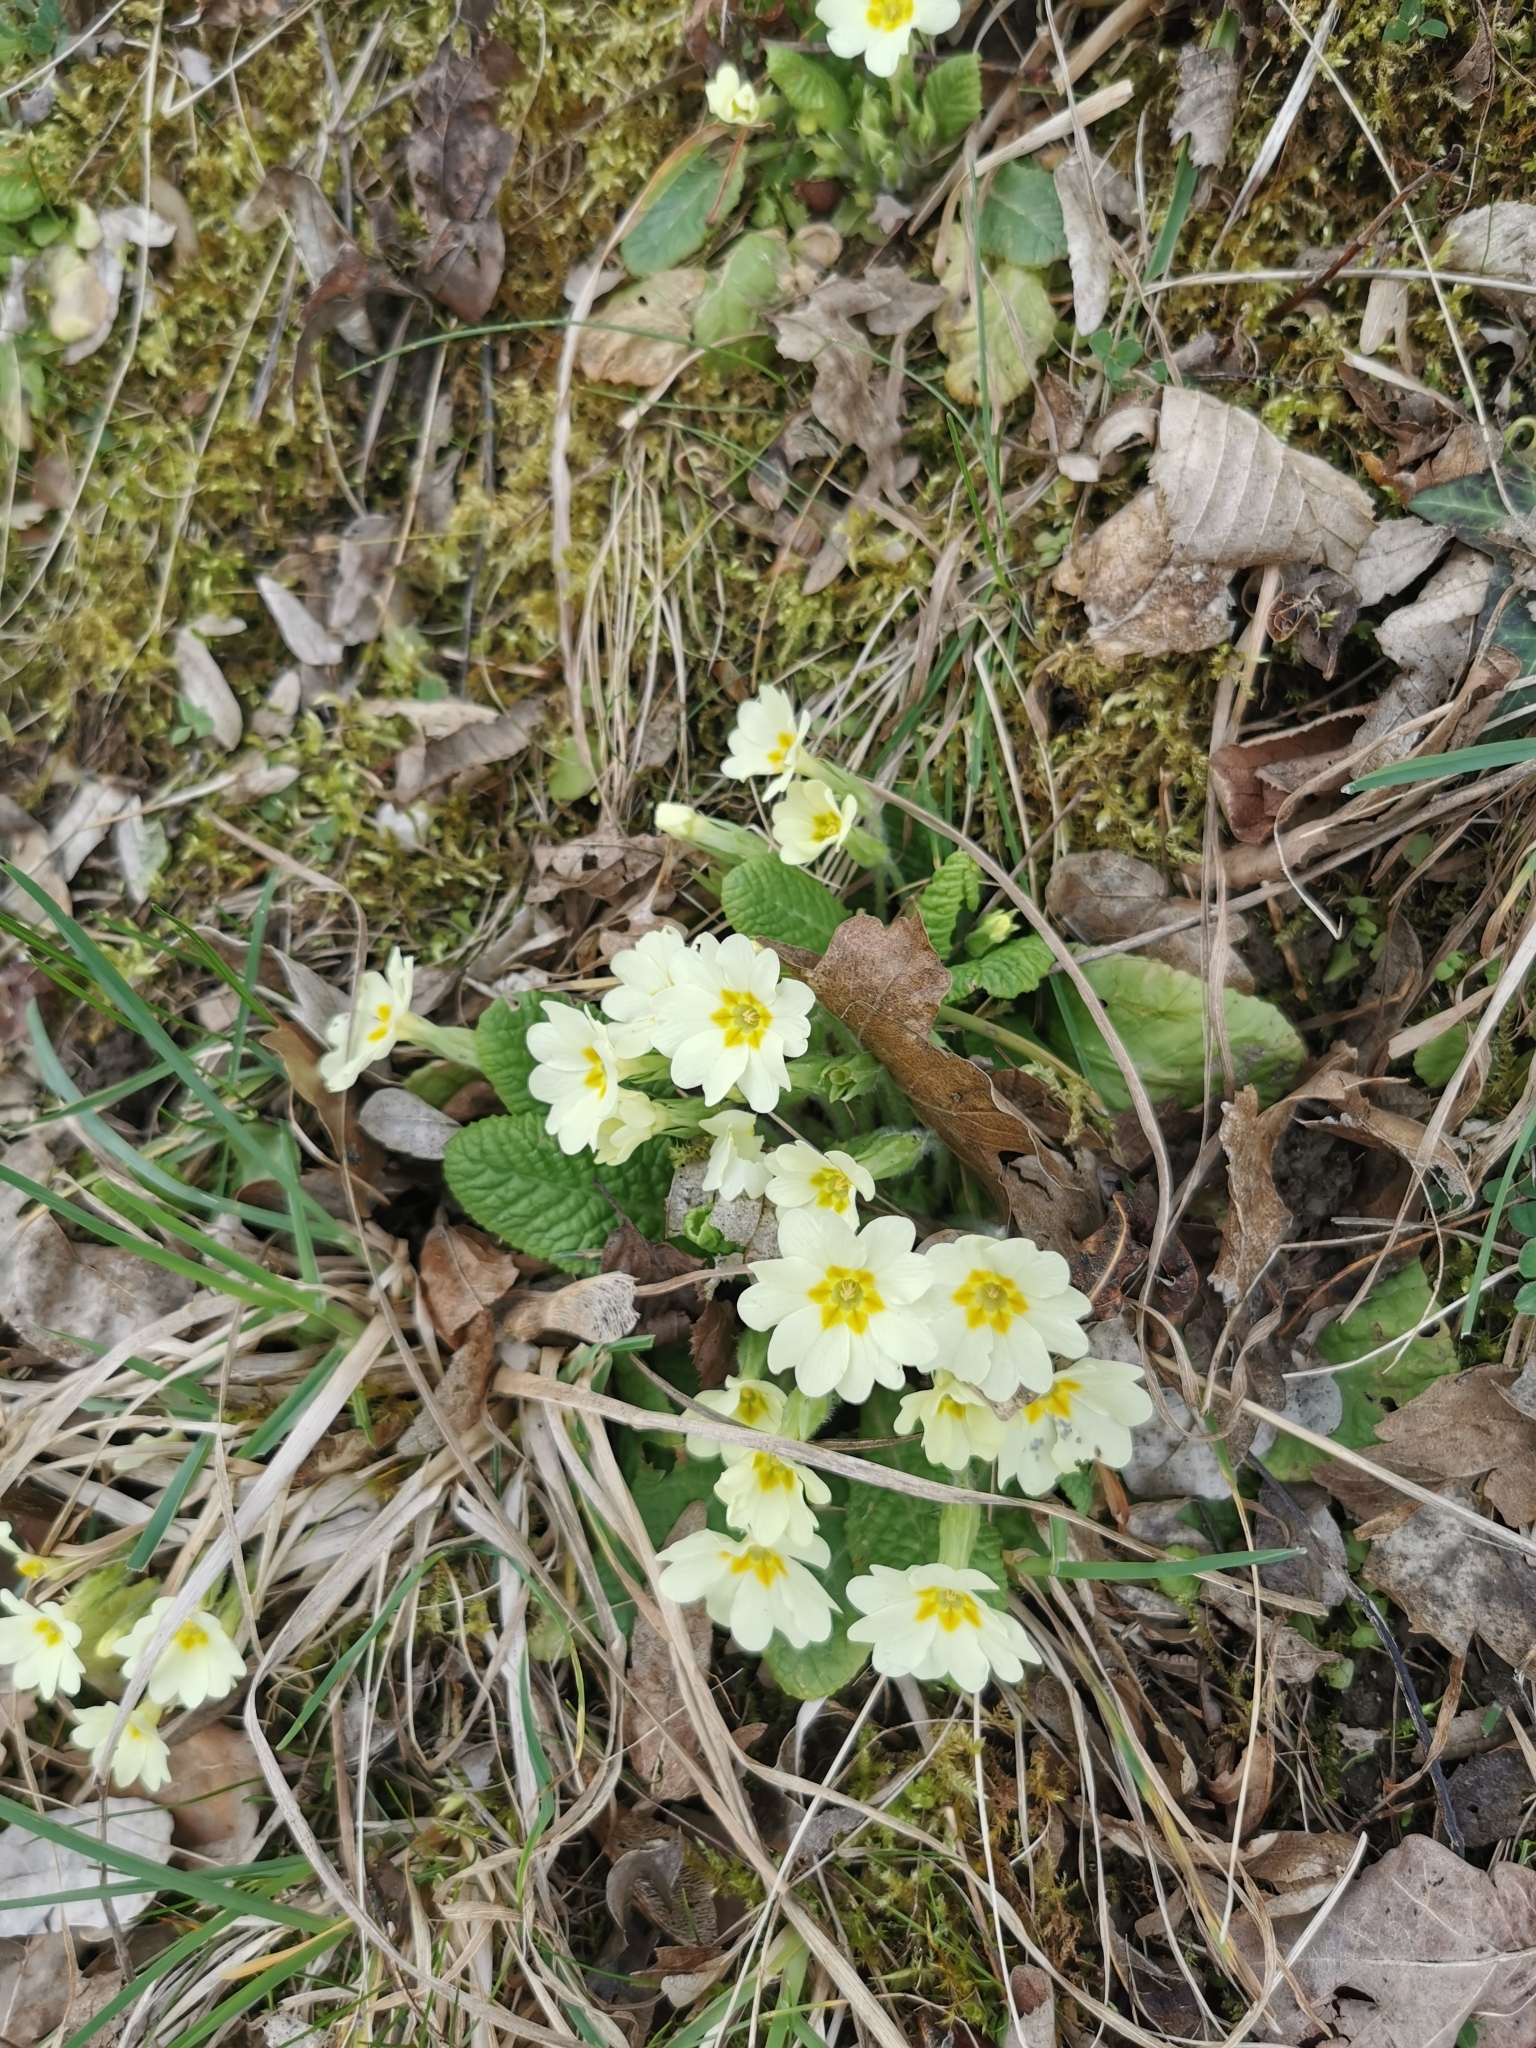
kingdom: Plantae
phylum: Tracheophyta
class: Magnoliopsida
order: Ericales
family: Primulaceae
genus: Primula
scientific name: Primula vulgaris
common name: Primrose
